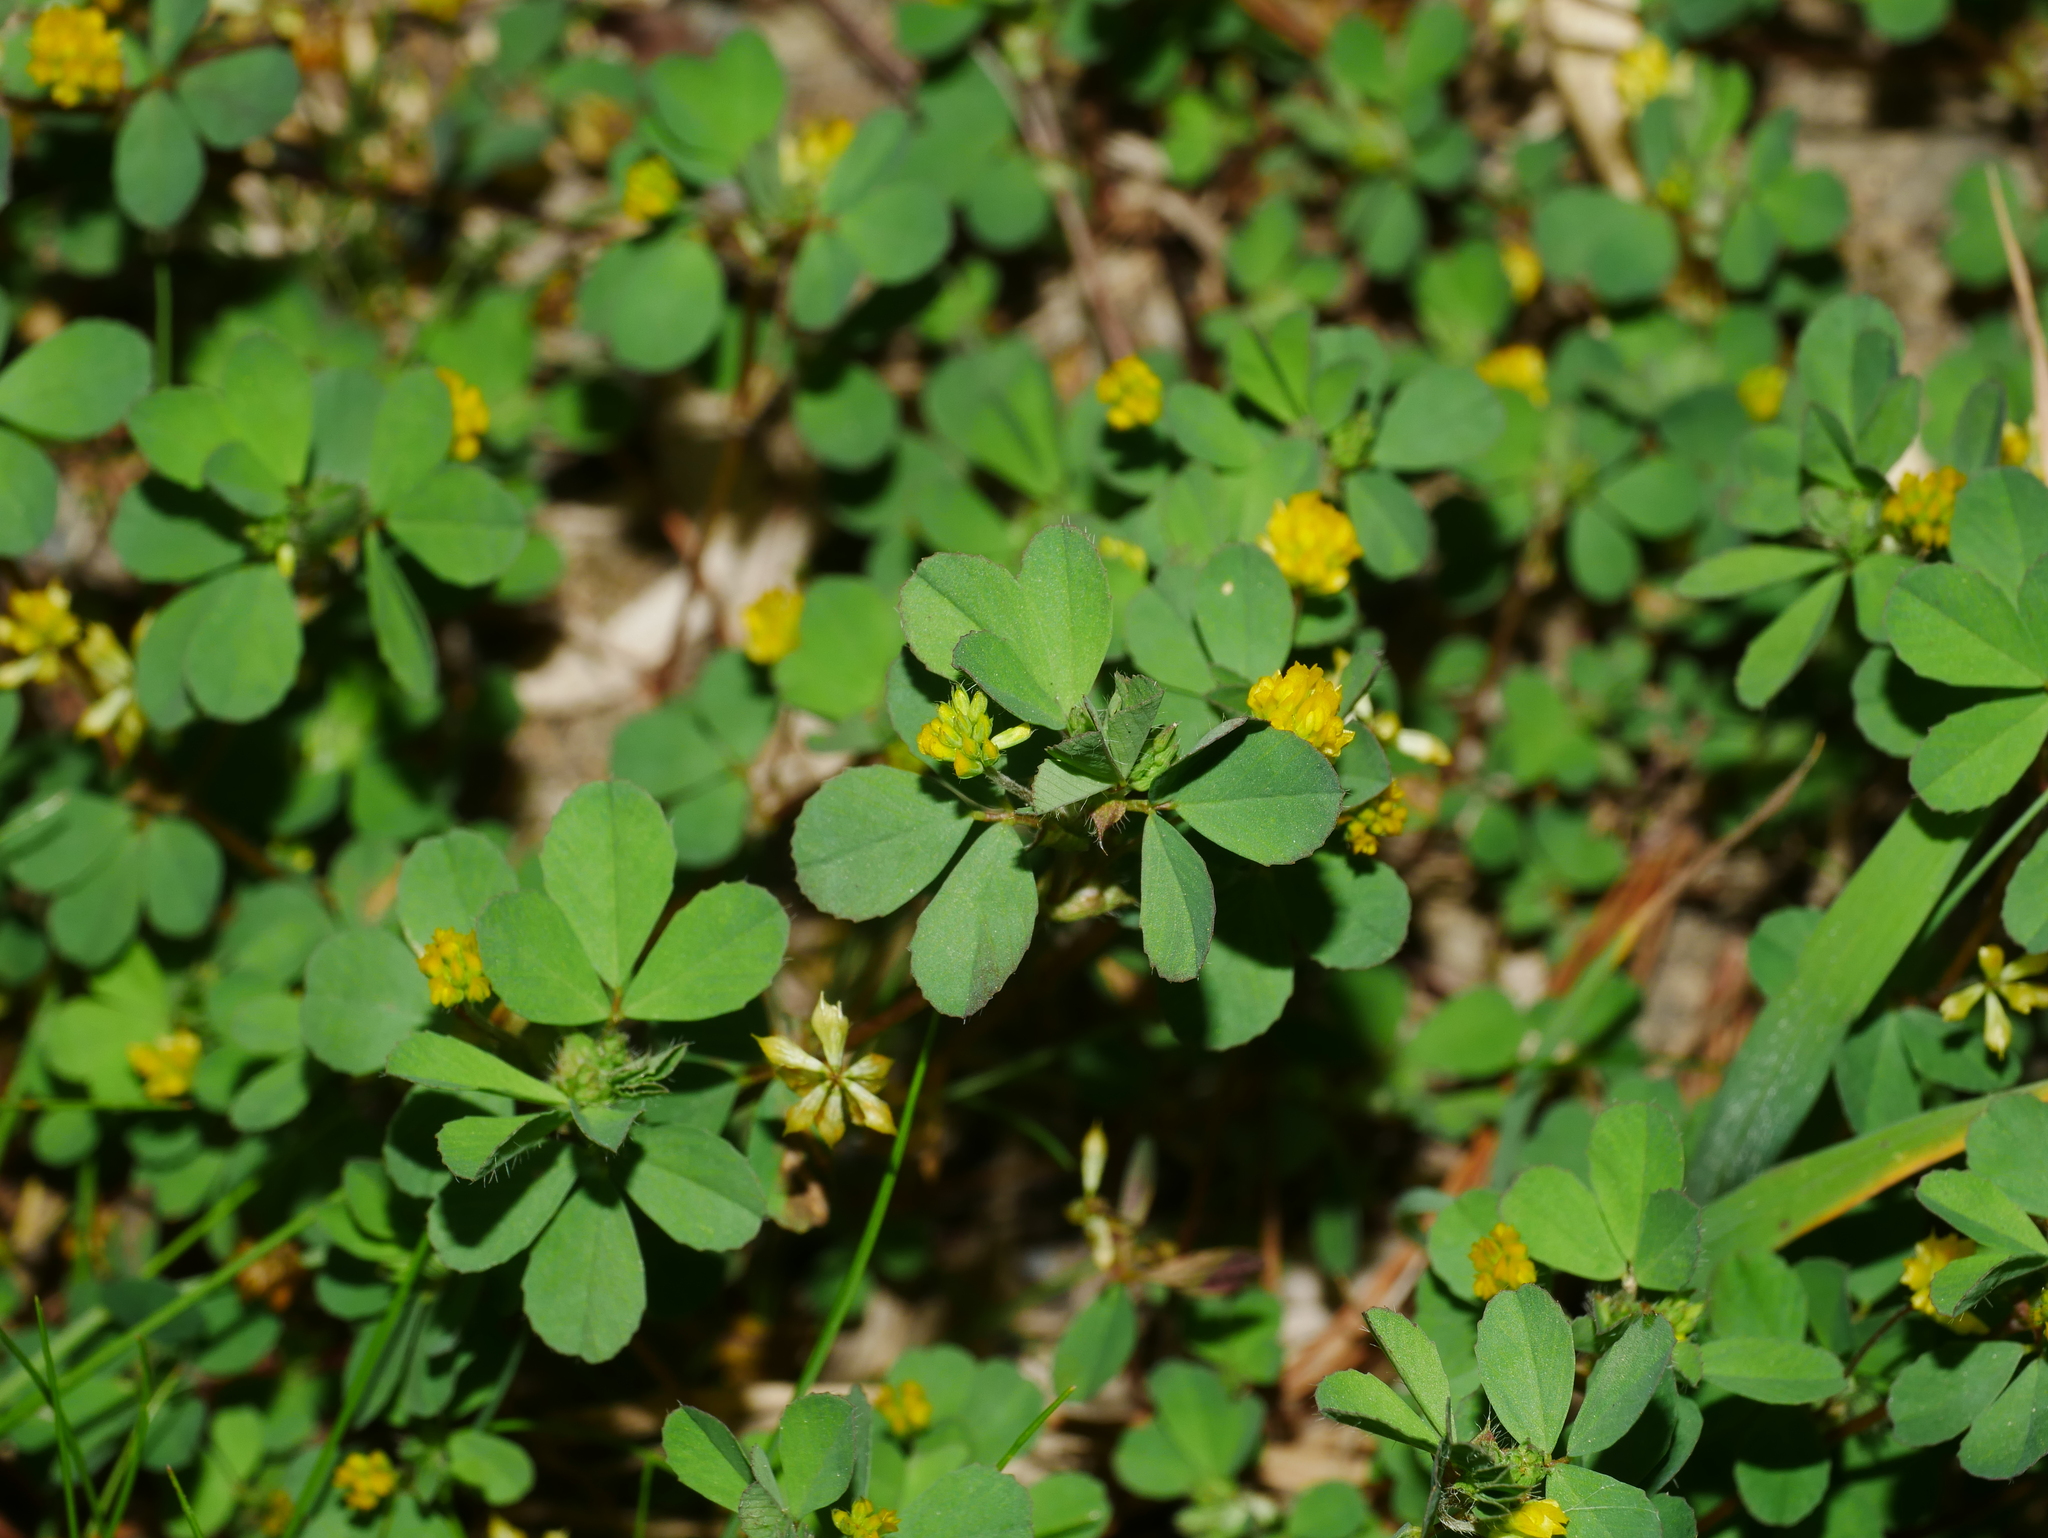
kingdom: Plantae
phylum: Tracheophyta
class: Magnoliopsida
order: Fabales
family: Fabaceae
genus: Trifolium
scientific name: Trifolium dubium
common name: Suckling clover
